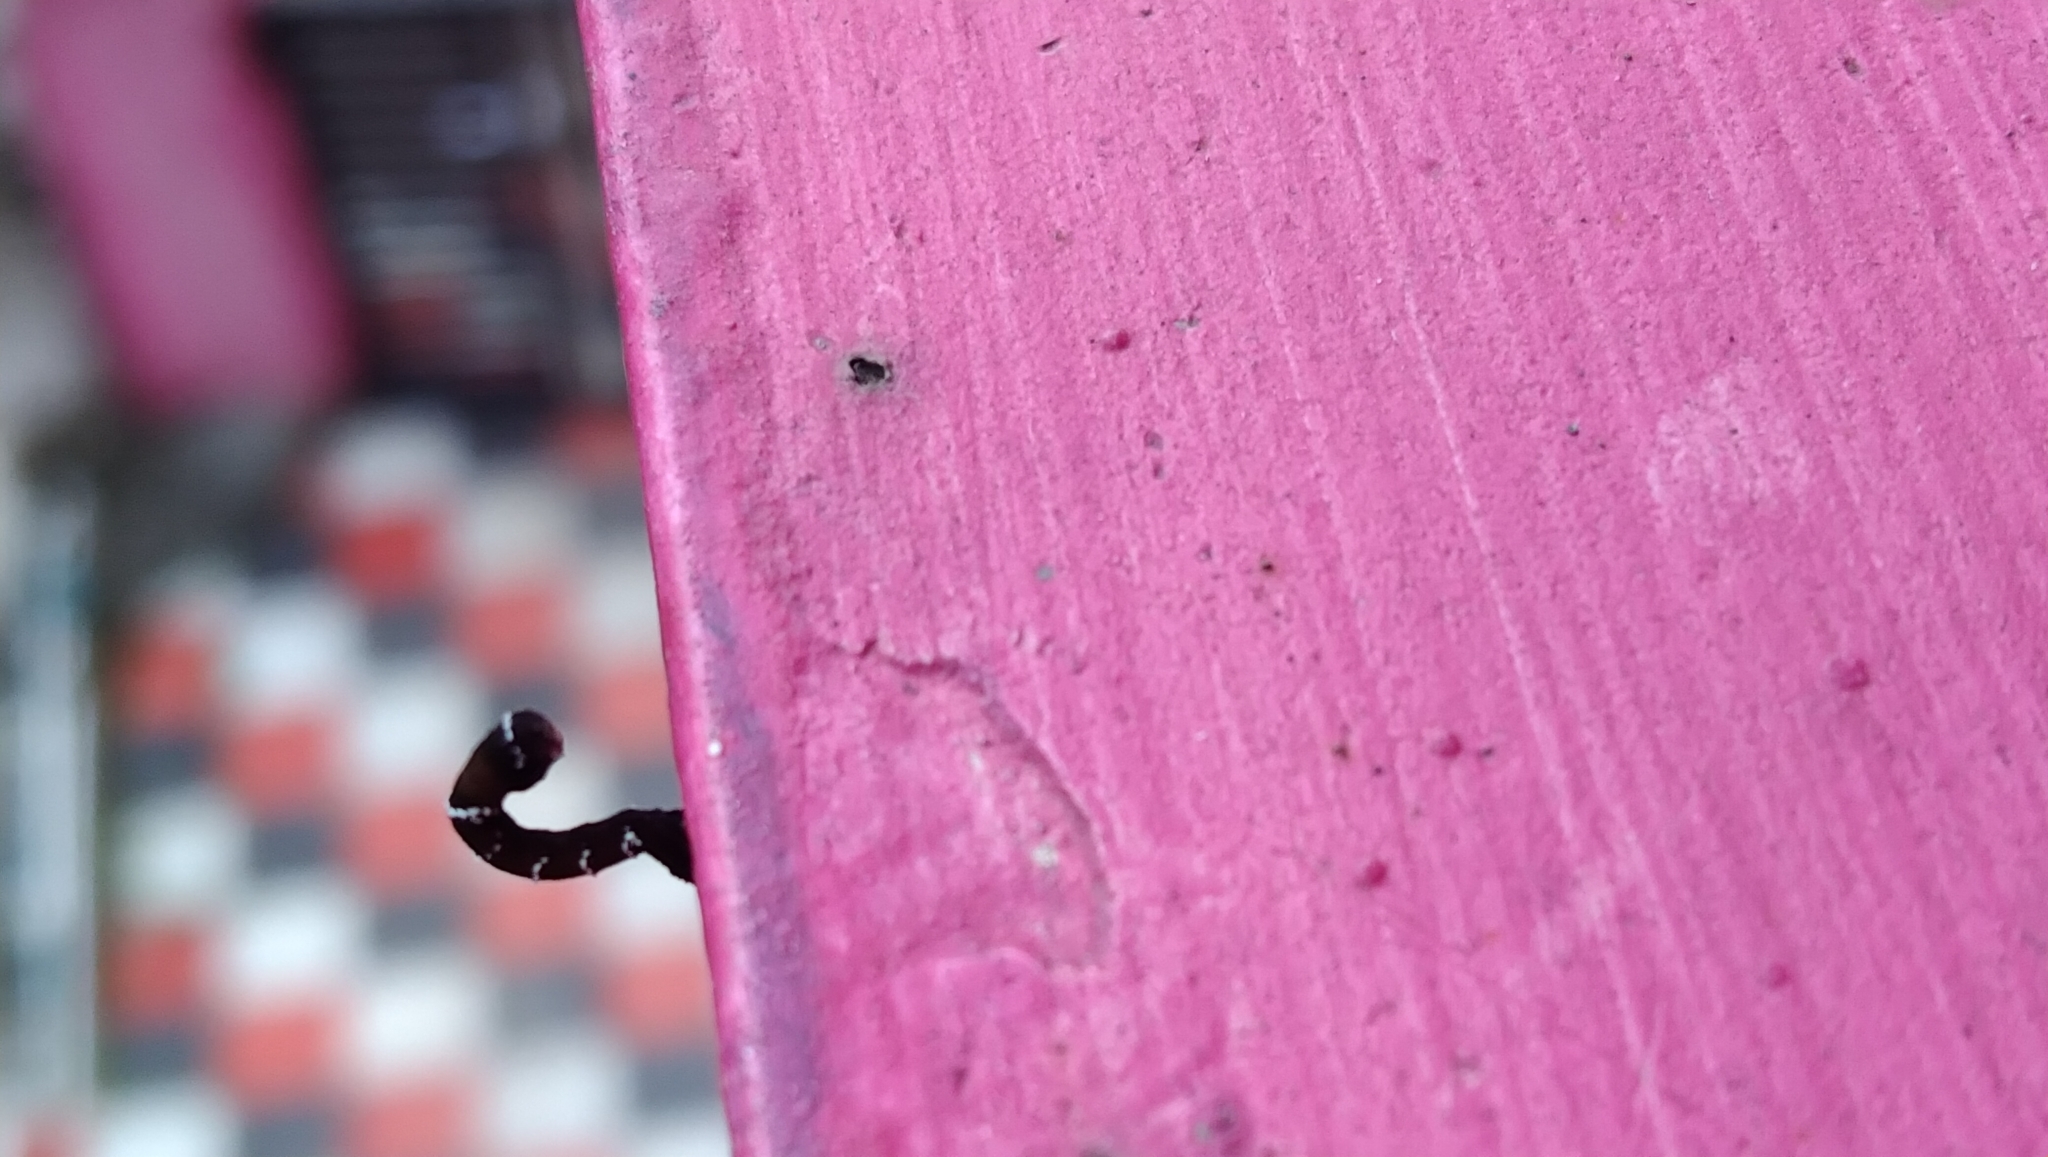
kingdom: Animalia
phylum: Arthropoda
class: Insecta
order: Lepidoptera
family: Geometridae
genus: Hyposidra
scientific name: Hyposidra talaca
